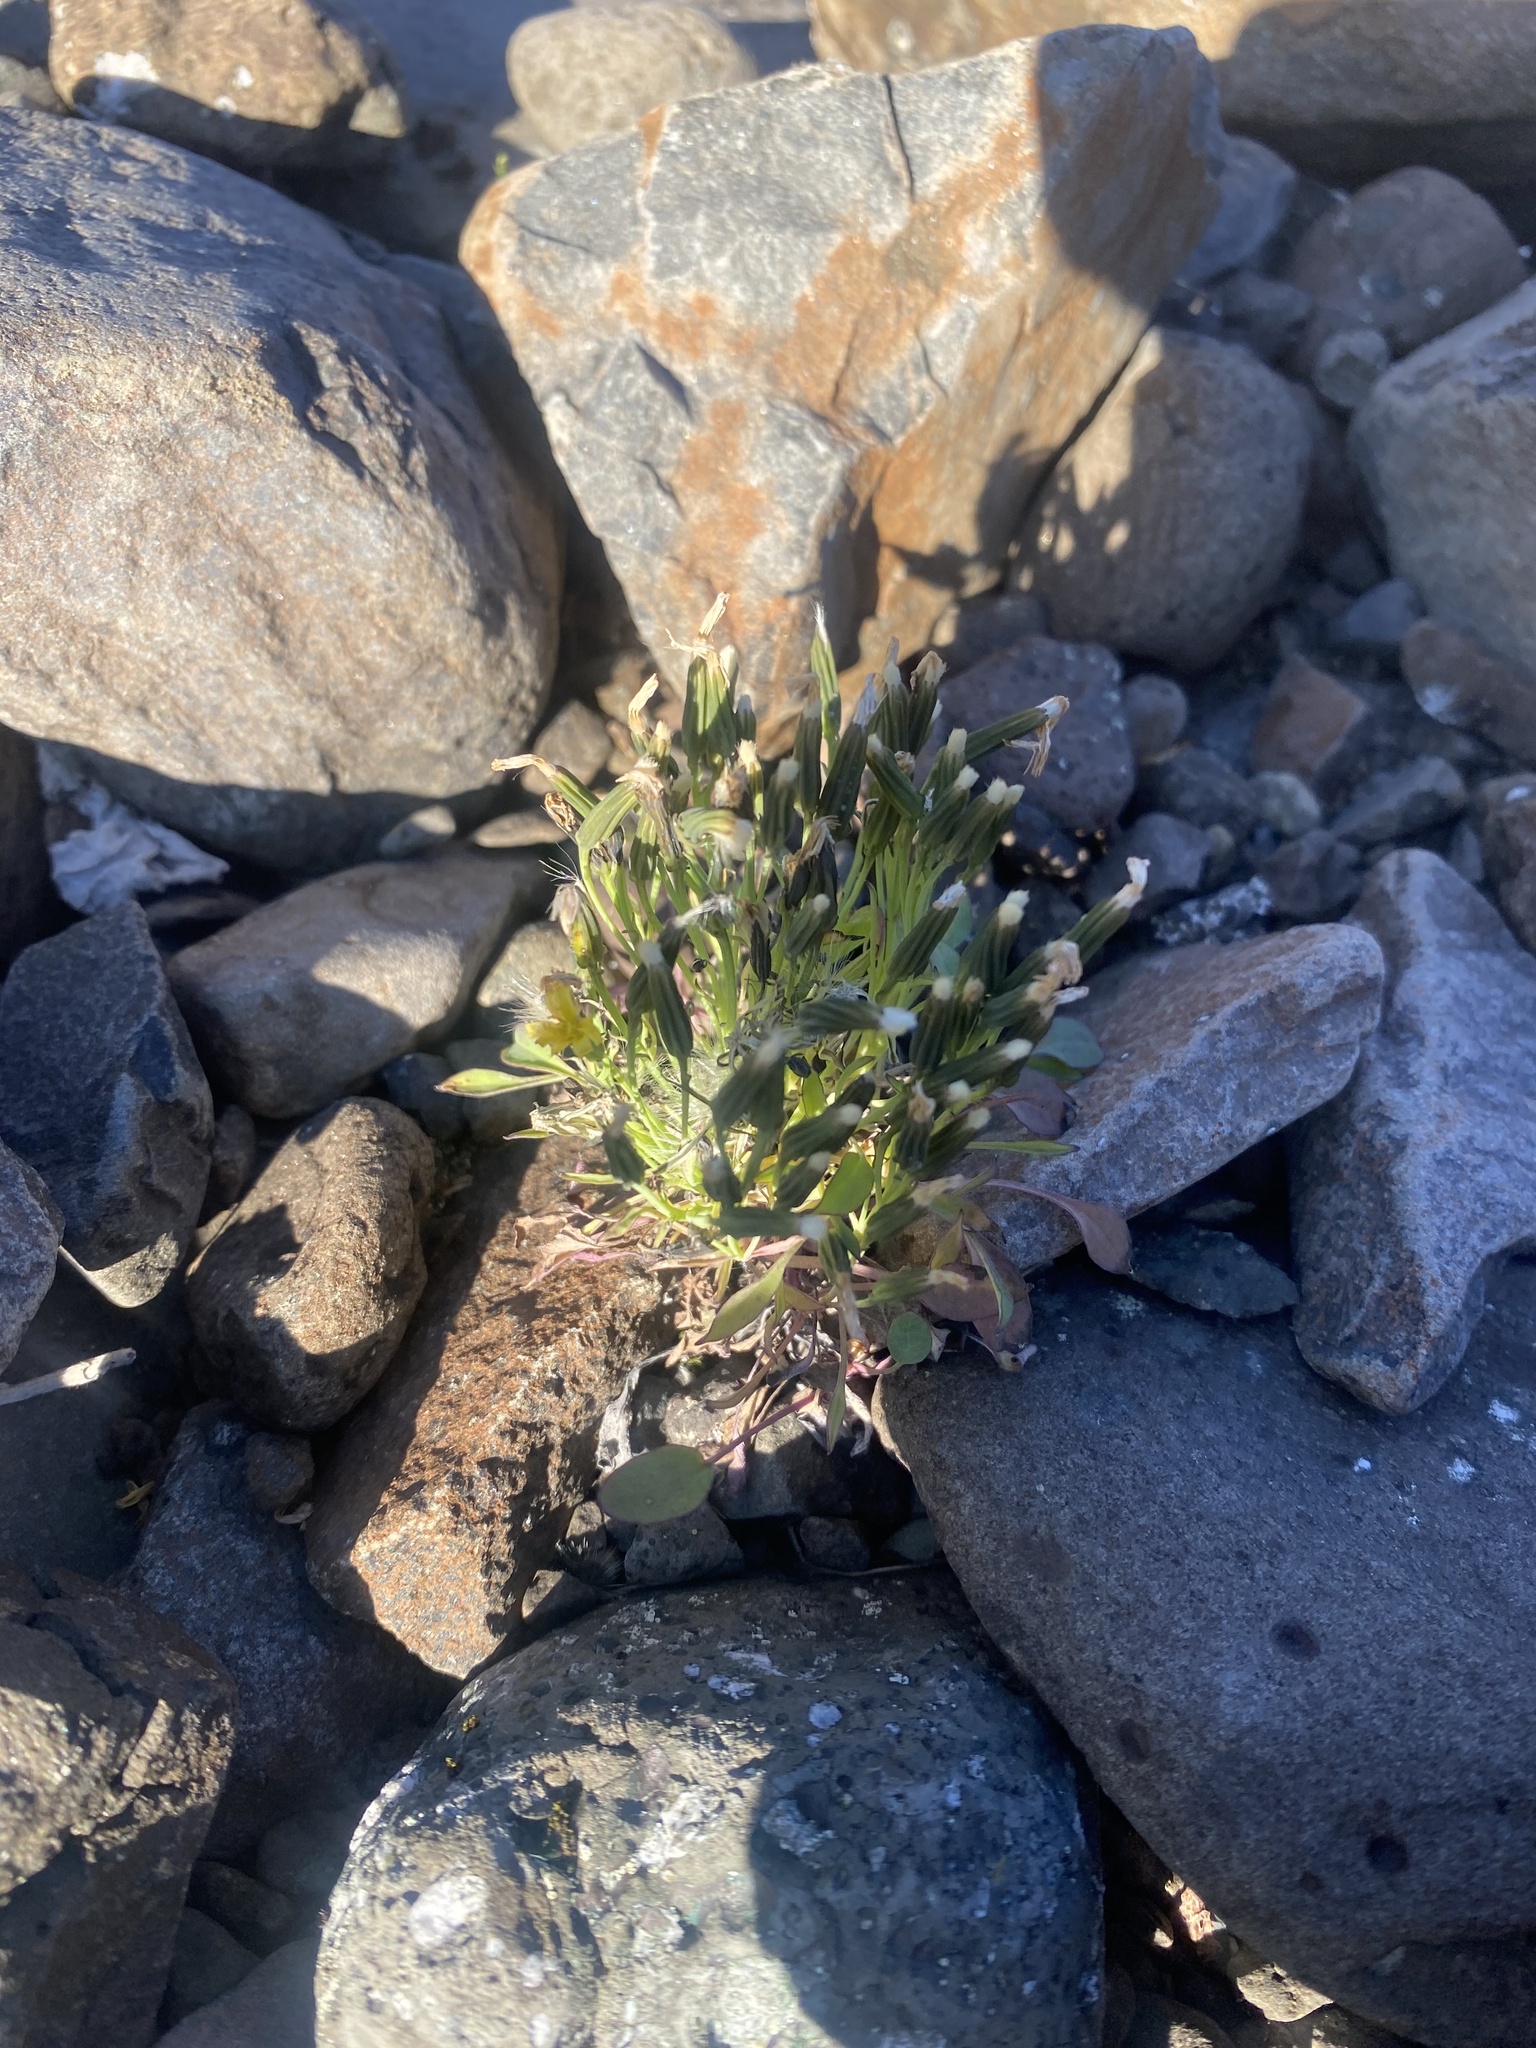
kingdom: Plantae
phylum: Tracheophyta
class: Magnoliopsida
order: Asterales
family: Asteraceae
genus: Askellia
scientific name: Askellia pygmaea
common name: Dwarf alpine hawksbeard
